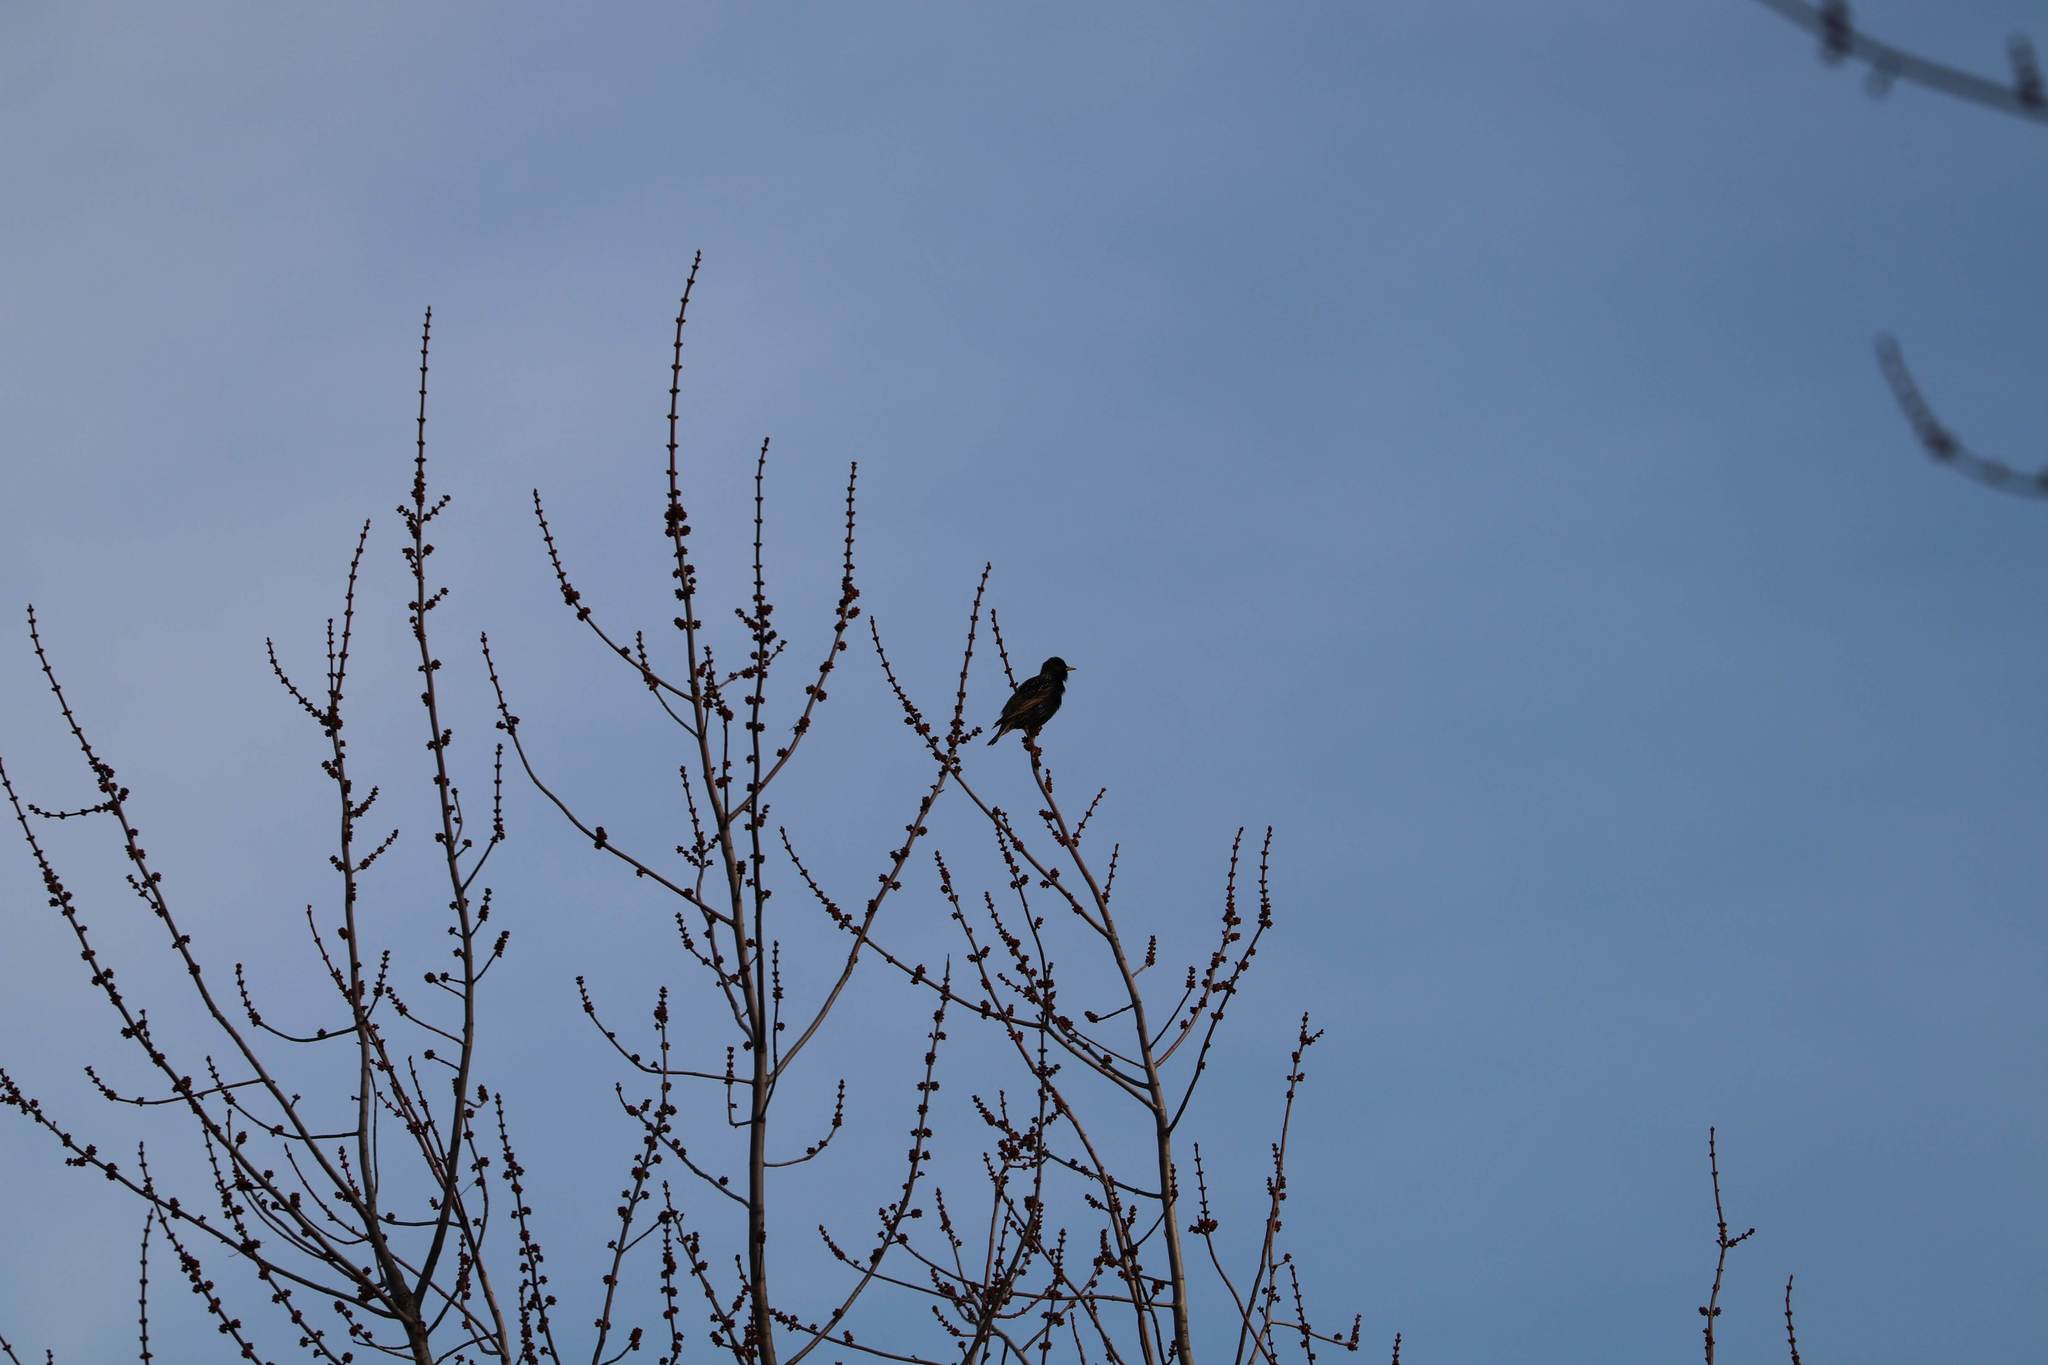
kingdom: Animalia
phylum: Chordata
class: Aves
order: Passeriformes
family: Sturnidae
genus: Sturnus
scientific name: Sturnus vulgaris
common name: Common starling
